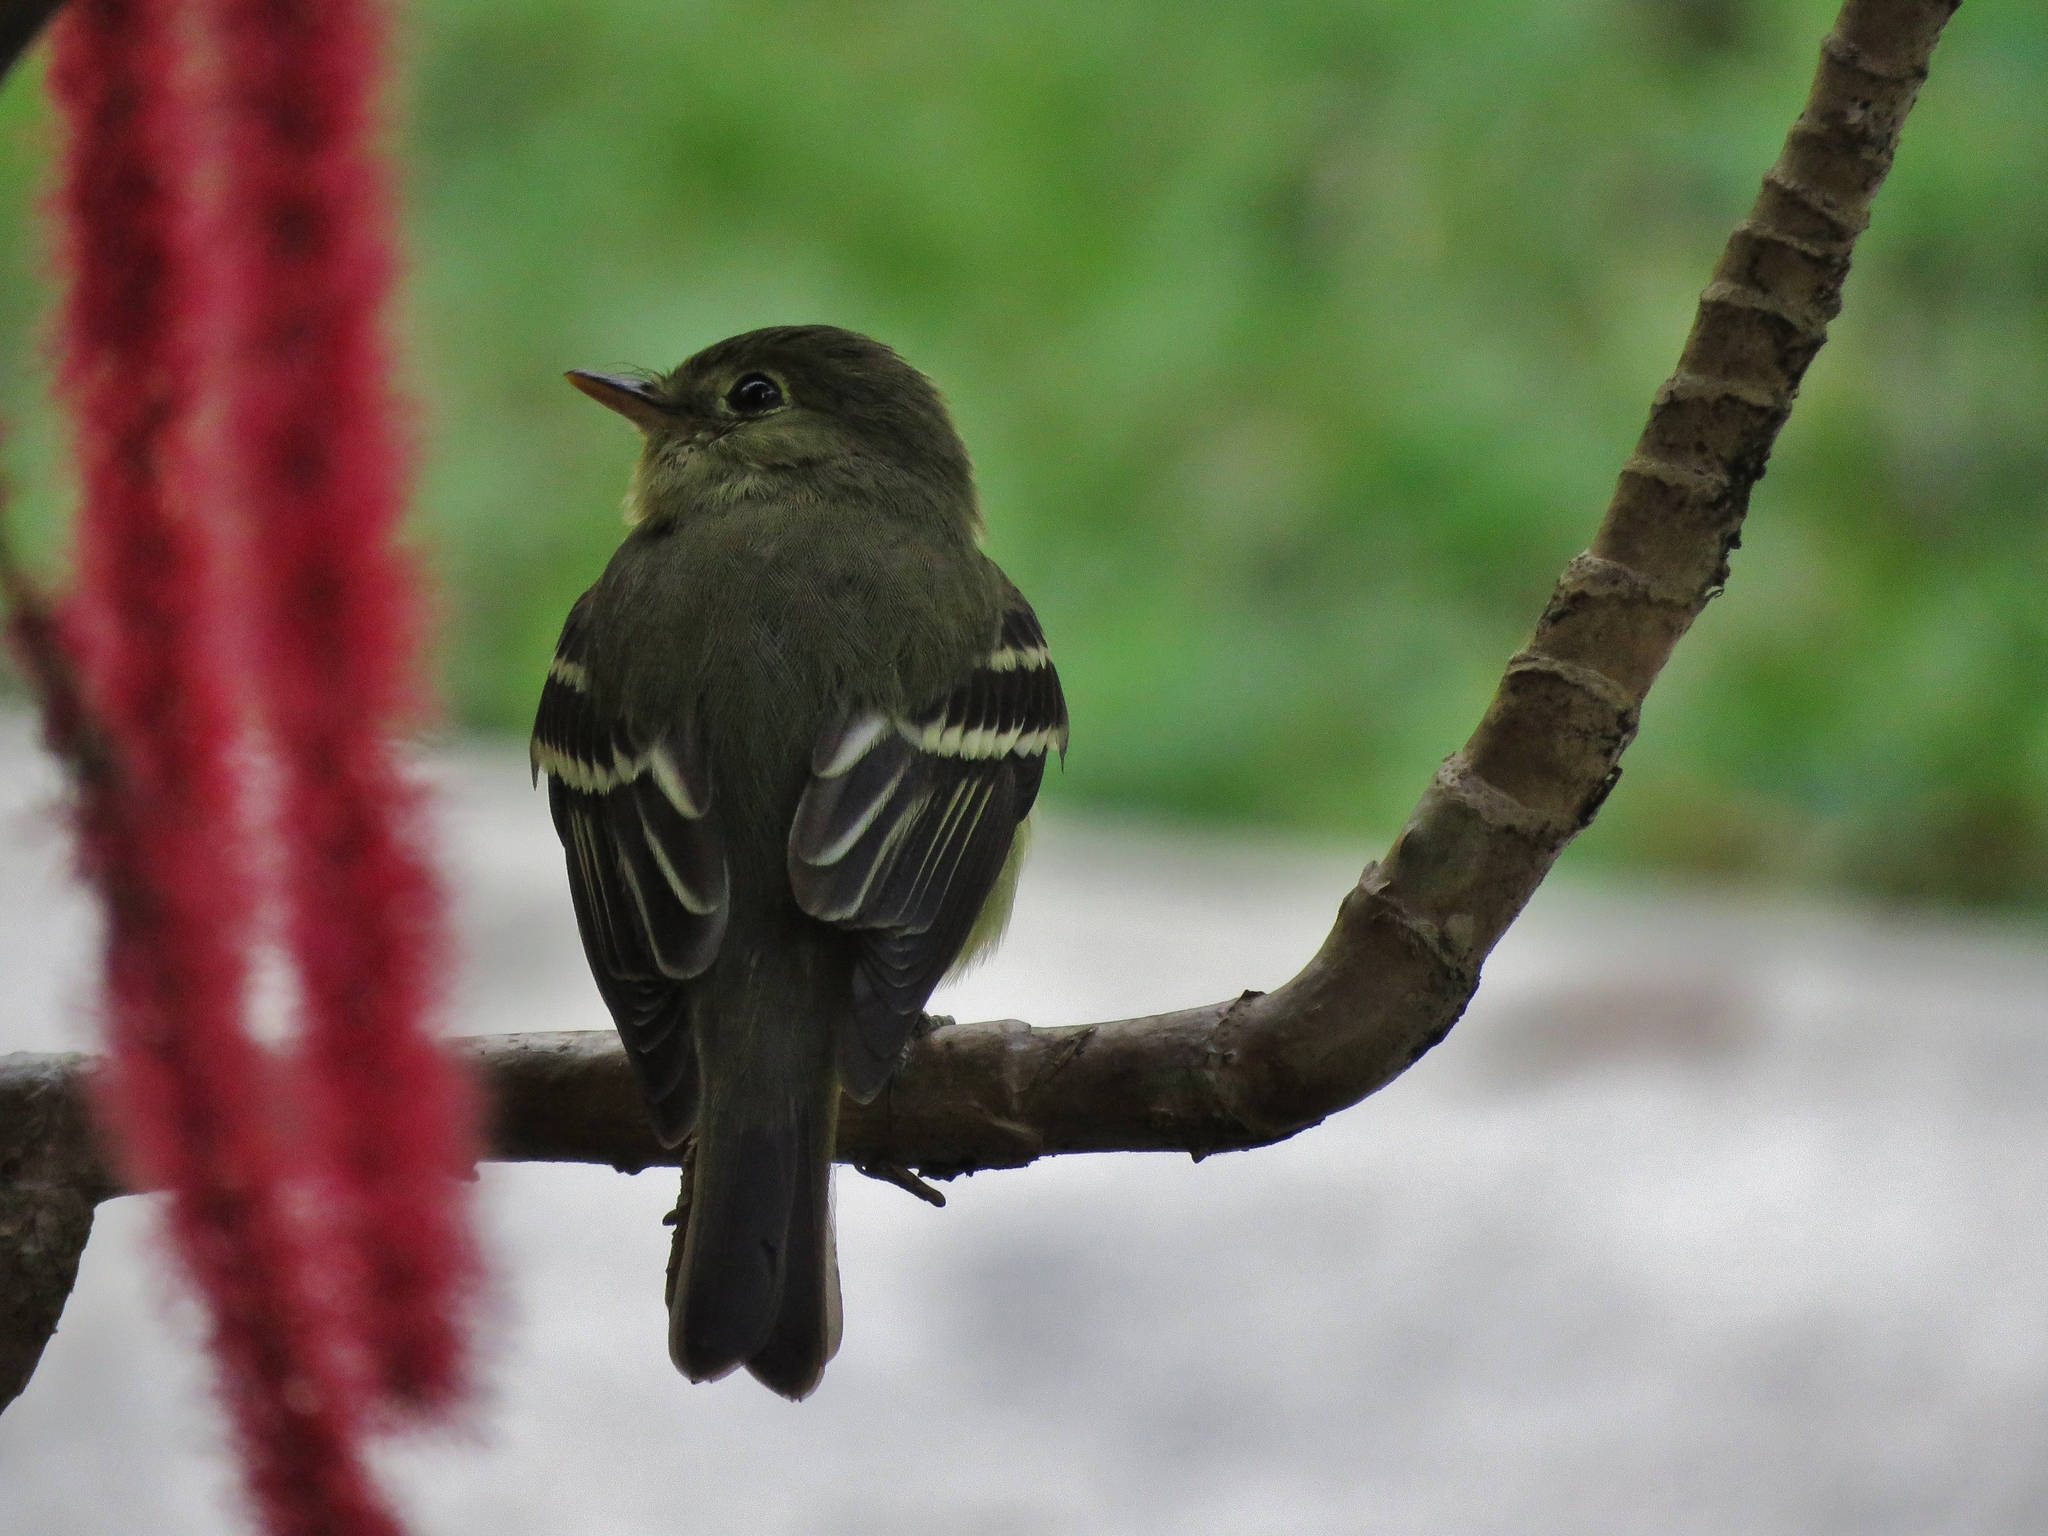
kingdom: Animalia
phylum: Chordata
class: Aves
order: Passeriformes
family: Tyrannidae
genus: Empidonax
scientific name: Empidonax flaviventris
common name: Yellow-bellied flycatcher
